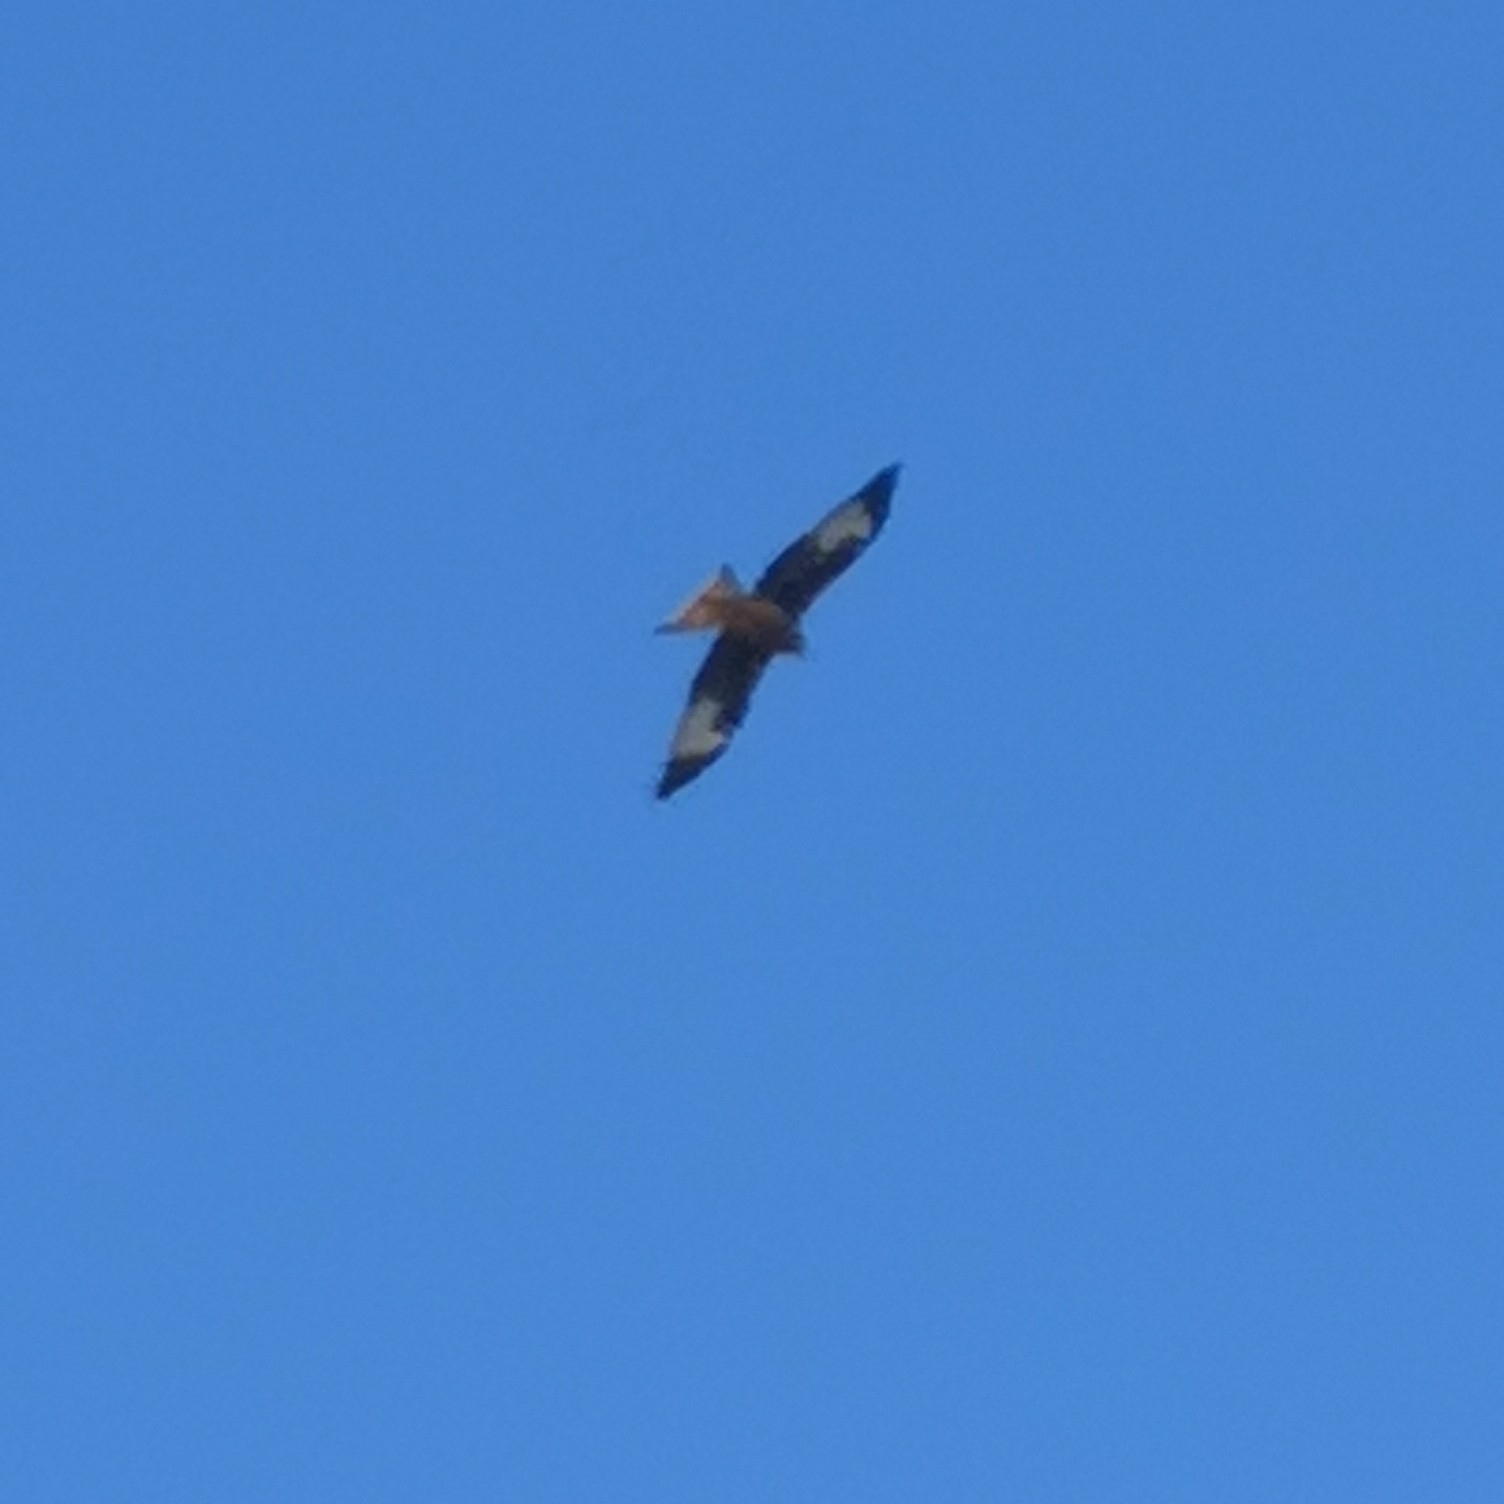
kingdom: Animalia
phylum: Chordata
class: Aves
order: Accipitriformes
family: Accipitridae
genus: Milvus
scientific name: Milvus milvus
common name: Red kite
